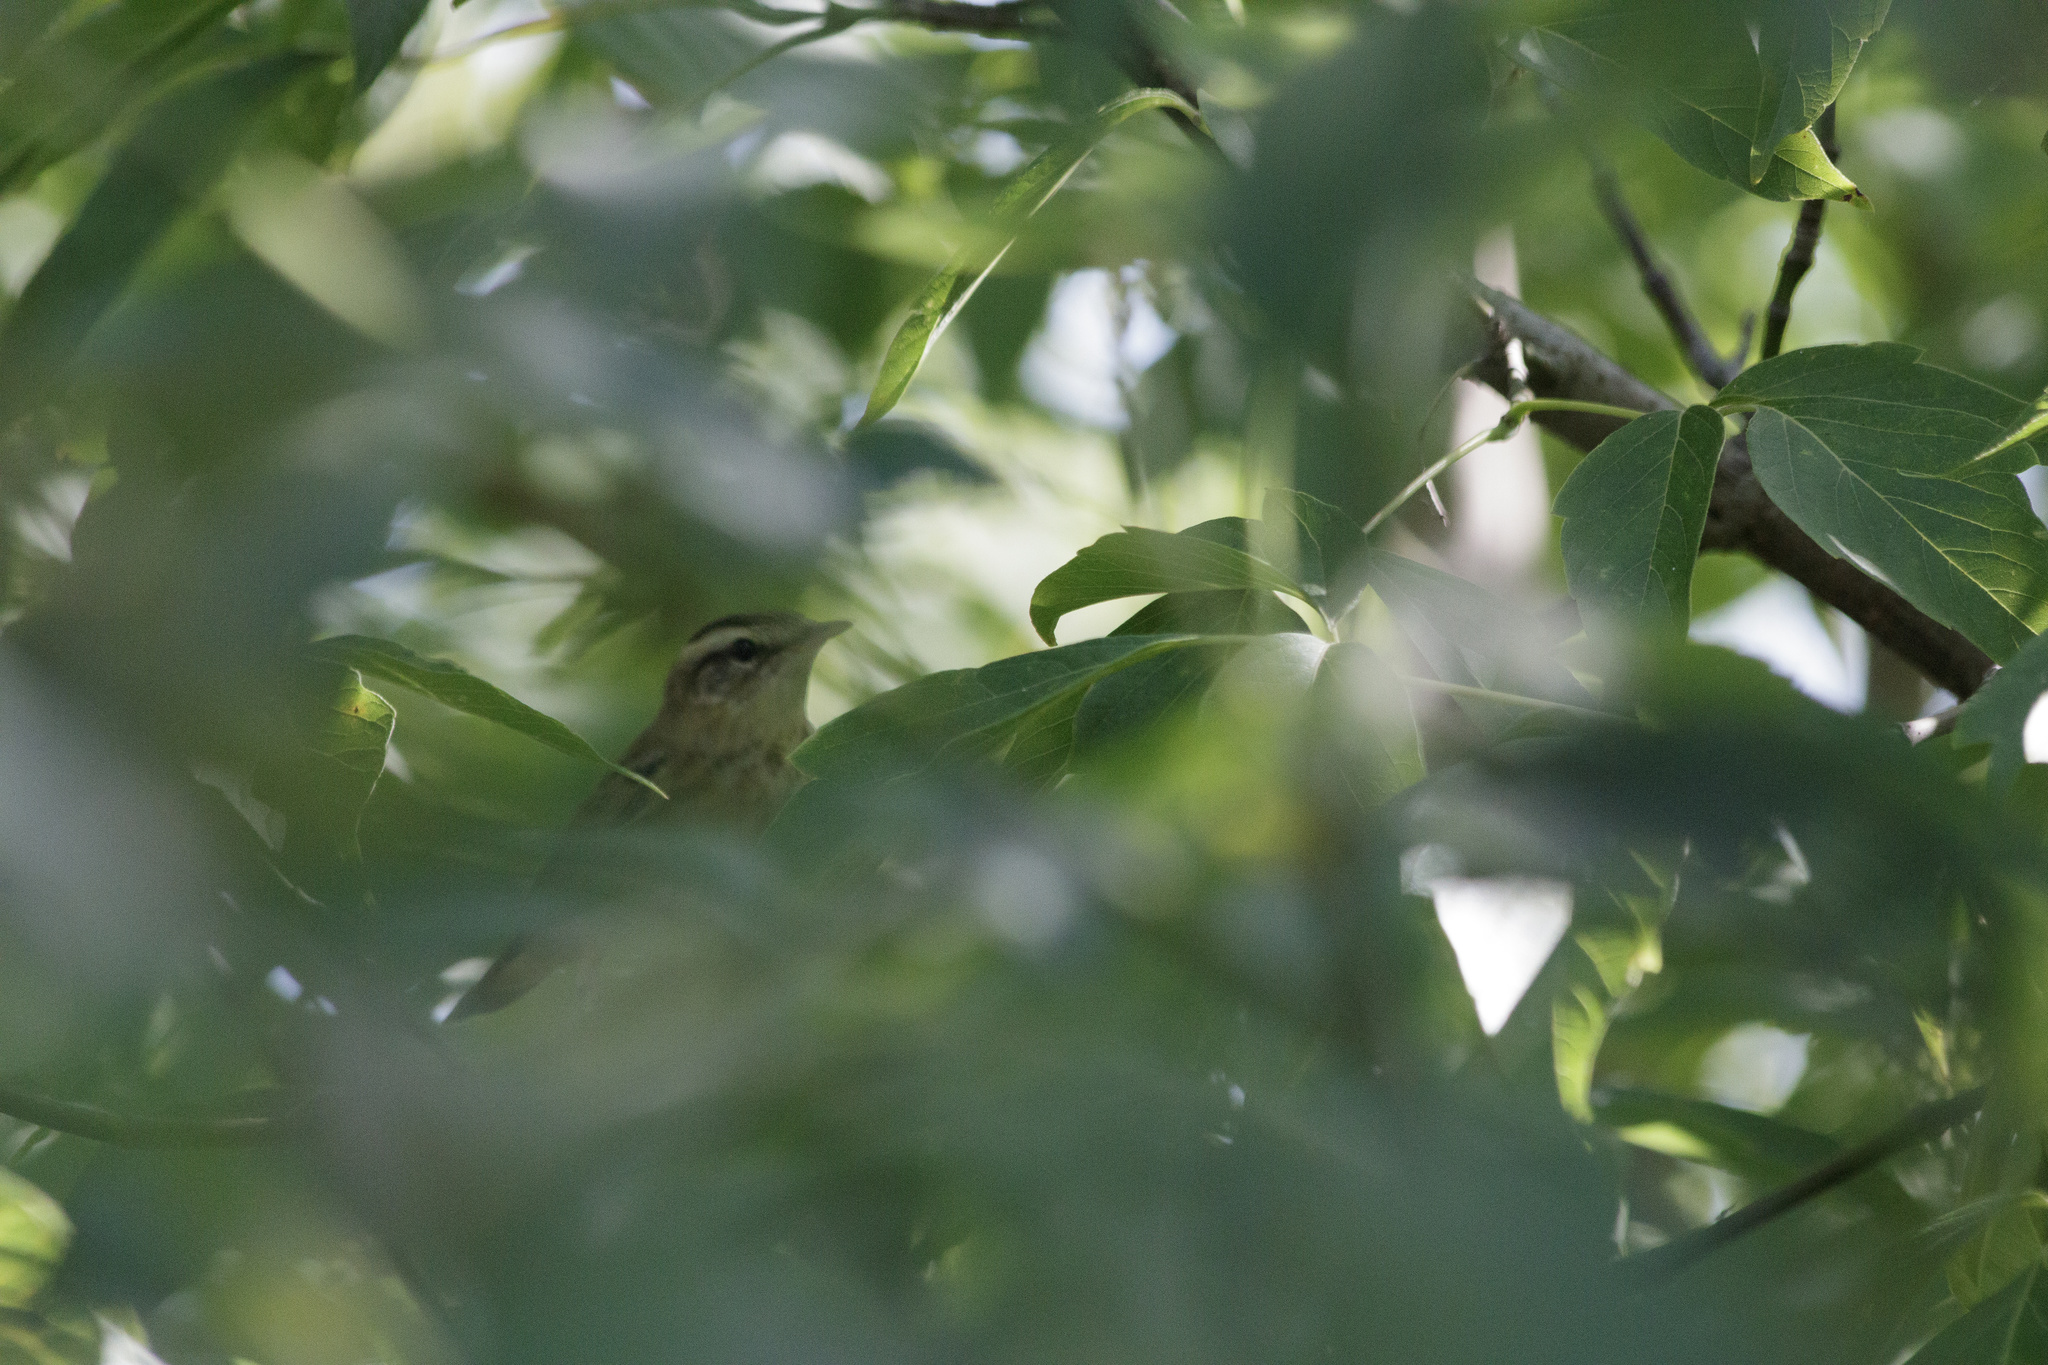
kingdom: Animalia
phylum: Chordata
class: Aves
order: Passeriformes
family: Acrocephalidae
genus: Acrocephalus
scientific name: Acrocephalus schoenobaenus
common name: Sedge warbler
